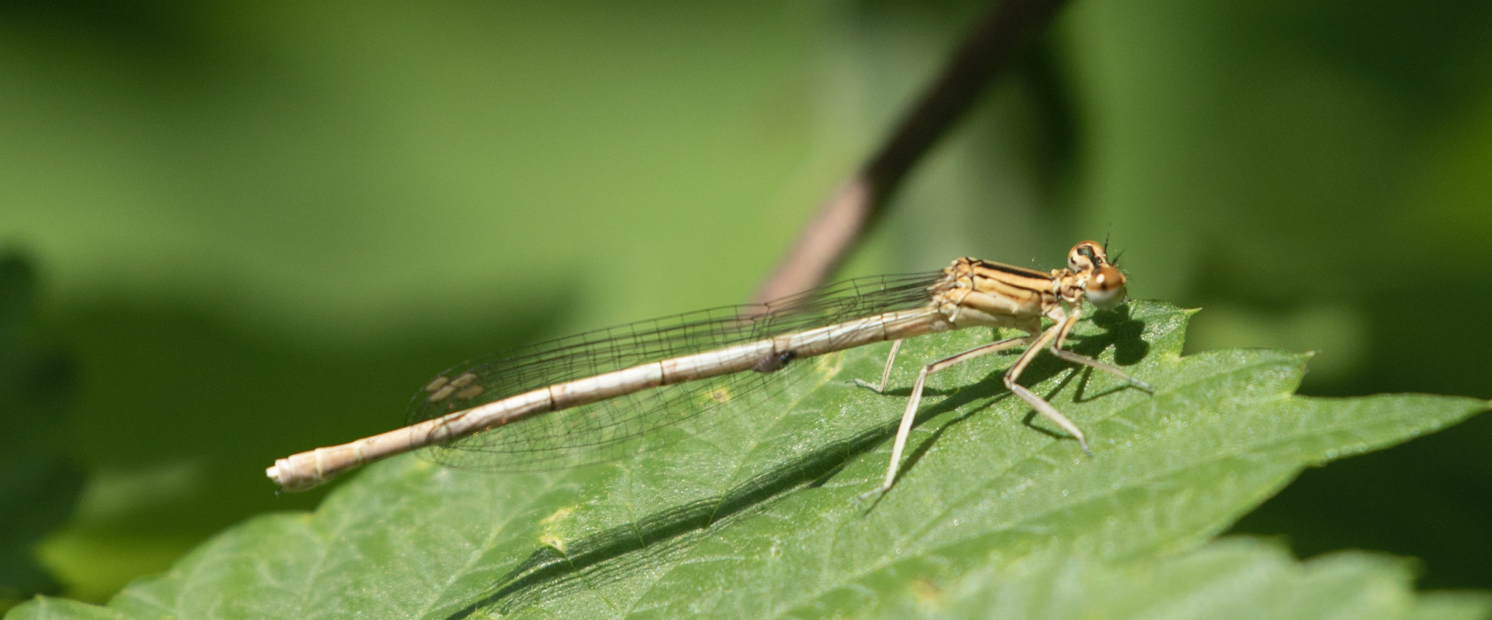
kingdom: Animalia
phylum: Arthropoda
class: Insecta
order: Odonata
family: Platycnemididae
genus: Platycnemis
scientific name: Platycnemis pennipes
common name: White-legged damselfly
